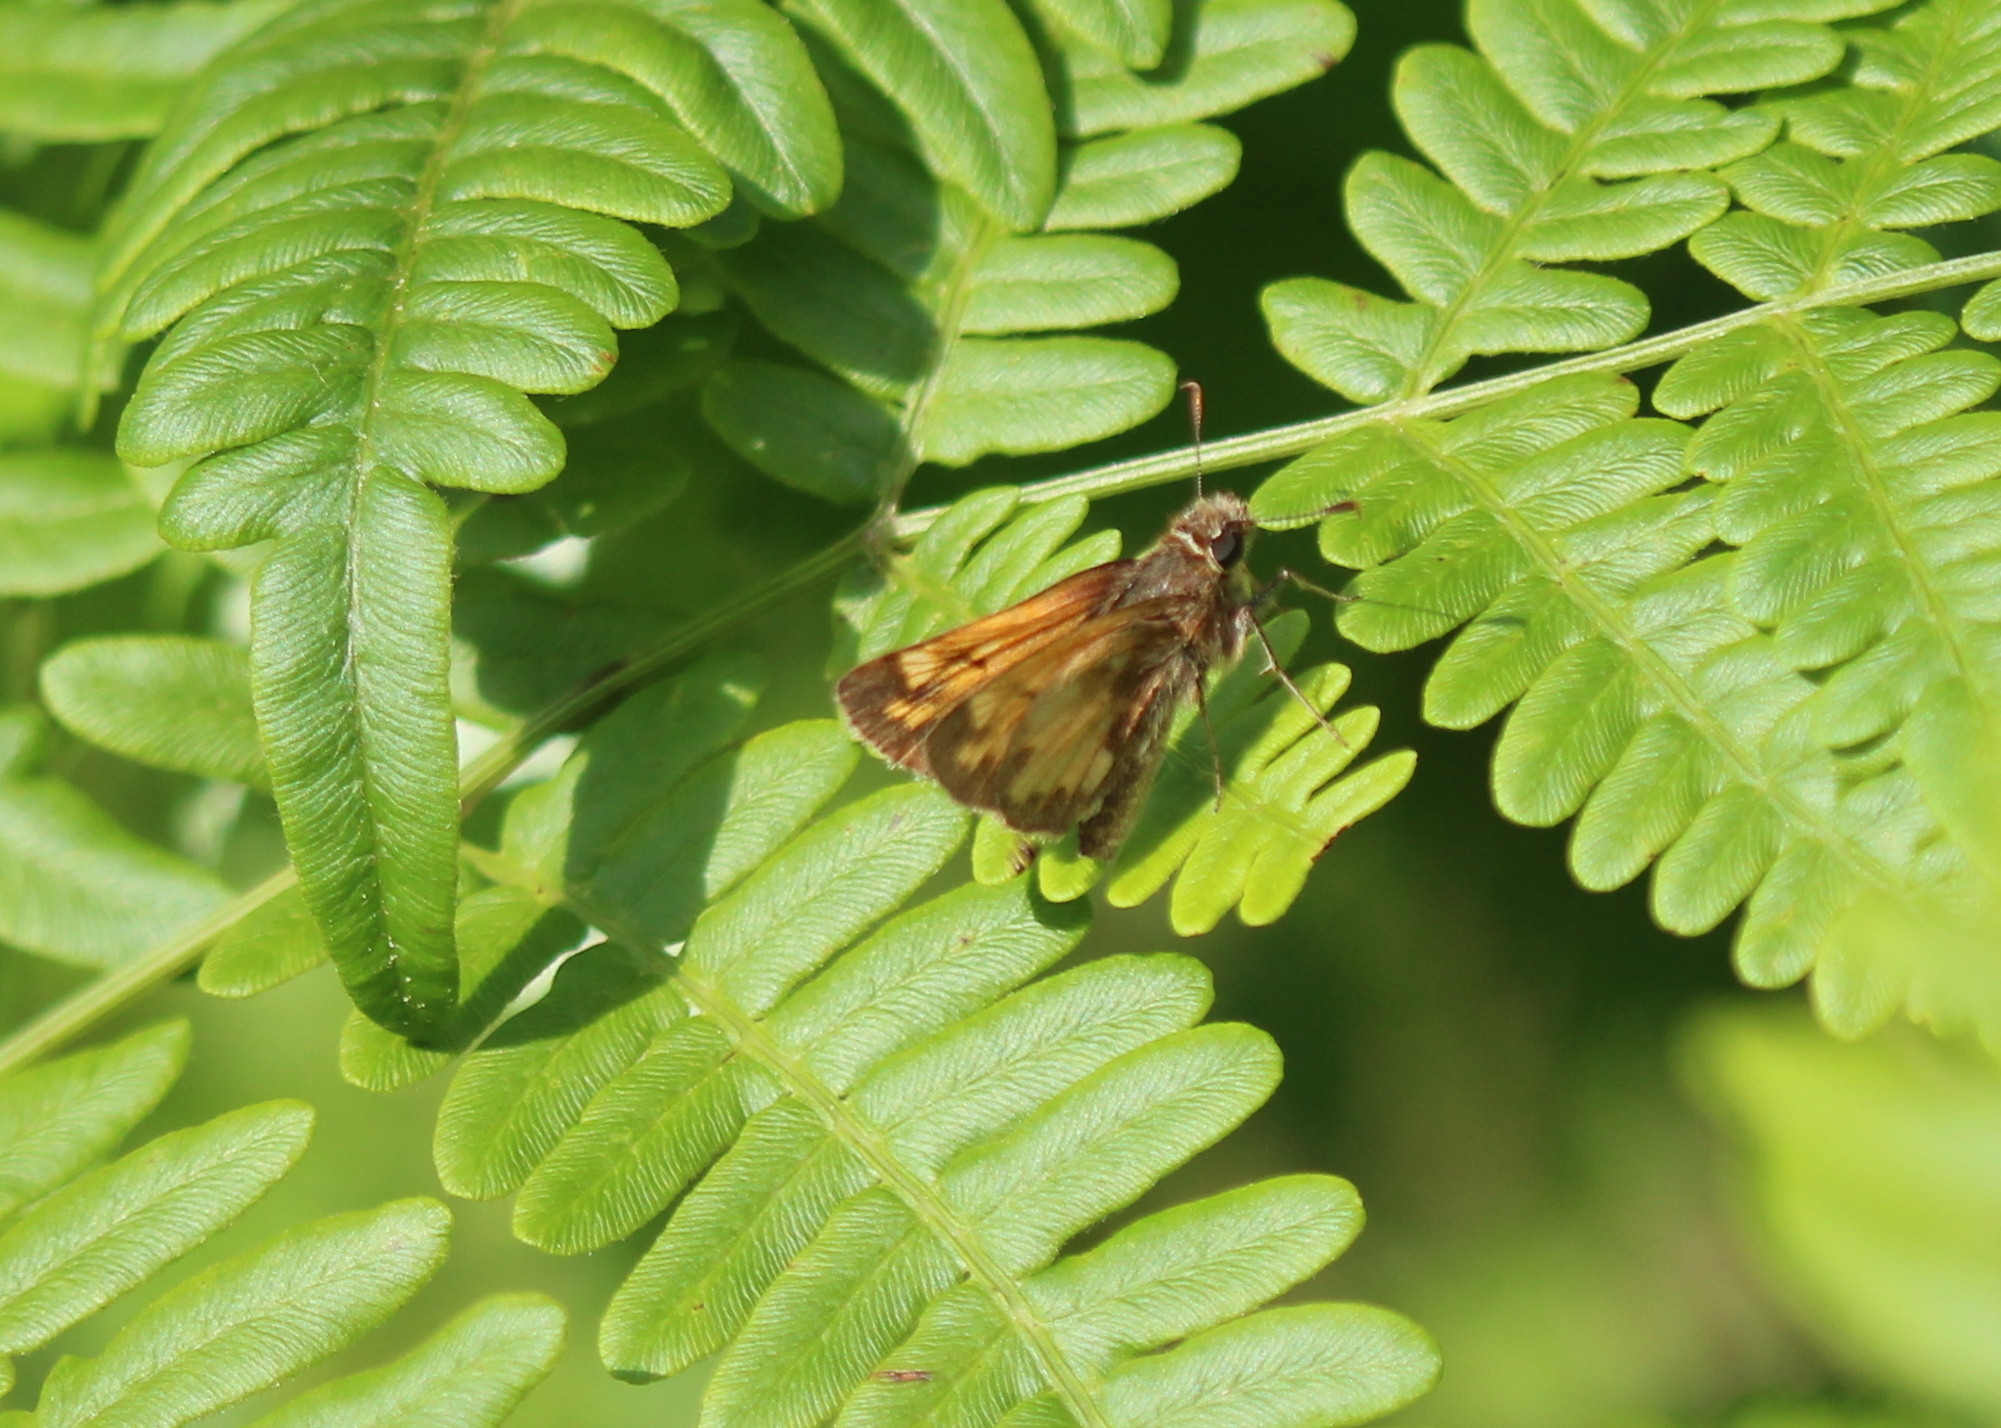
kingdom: Animalia
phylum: Arthropoda
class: Insecta
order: Lepidoptera
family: Hesperiidae
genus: Lon
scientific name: Lon hobomok
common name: Hobomok skipper
